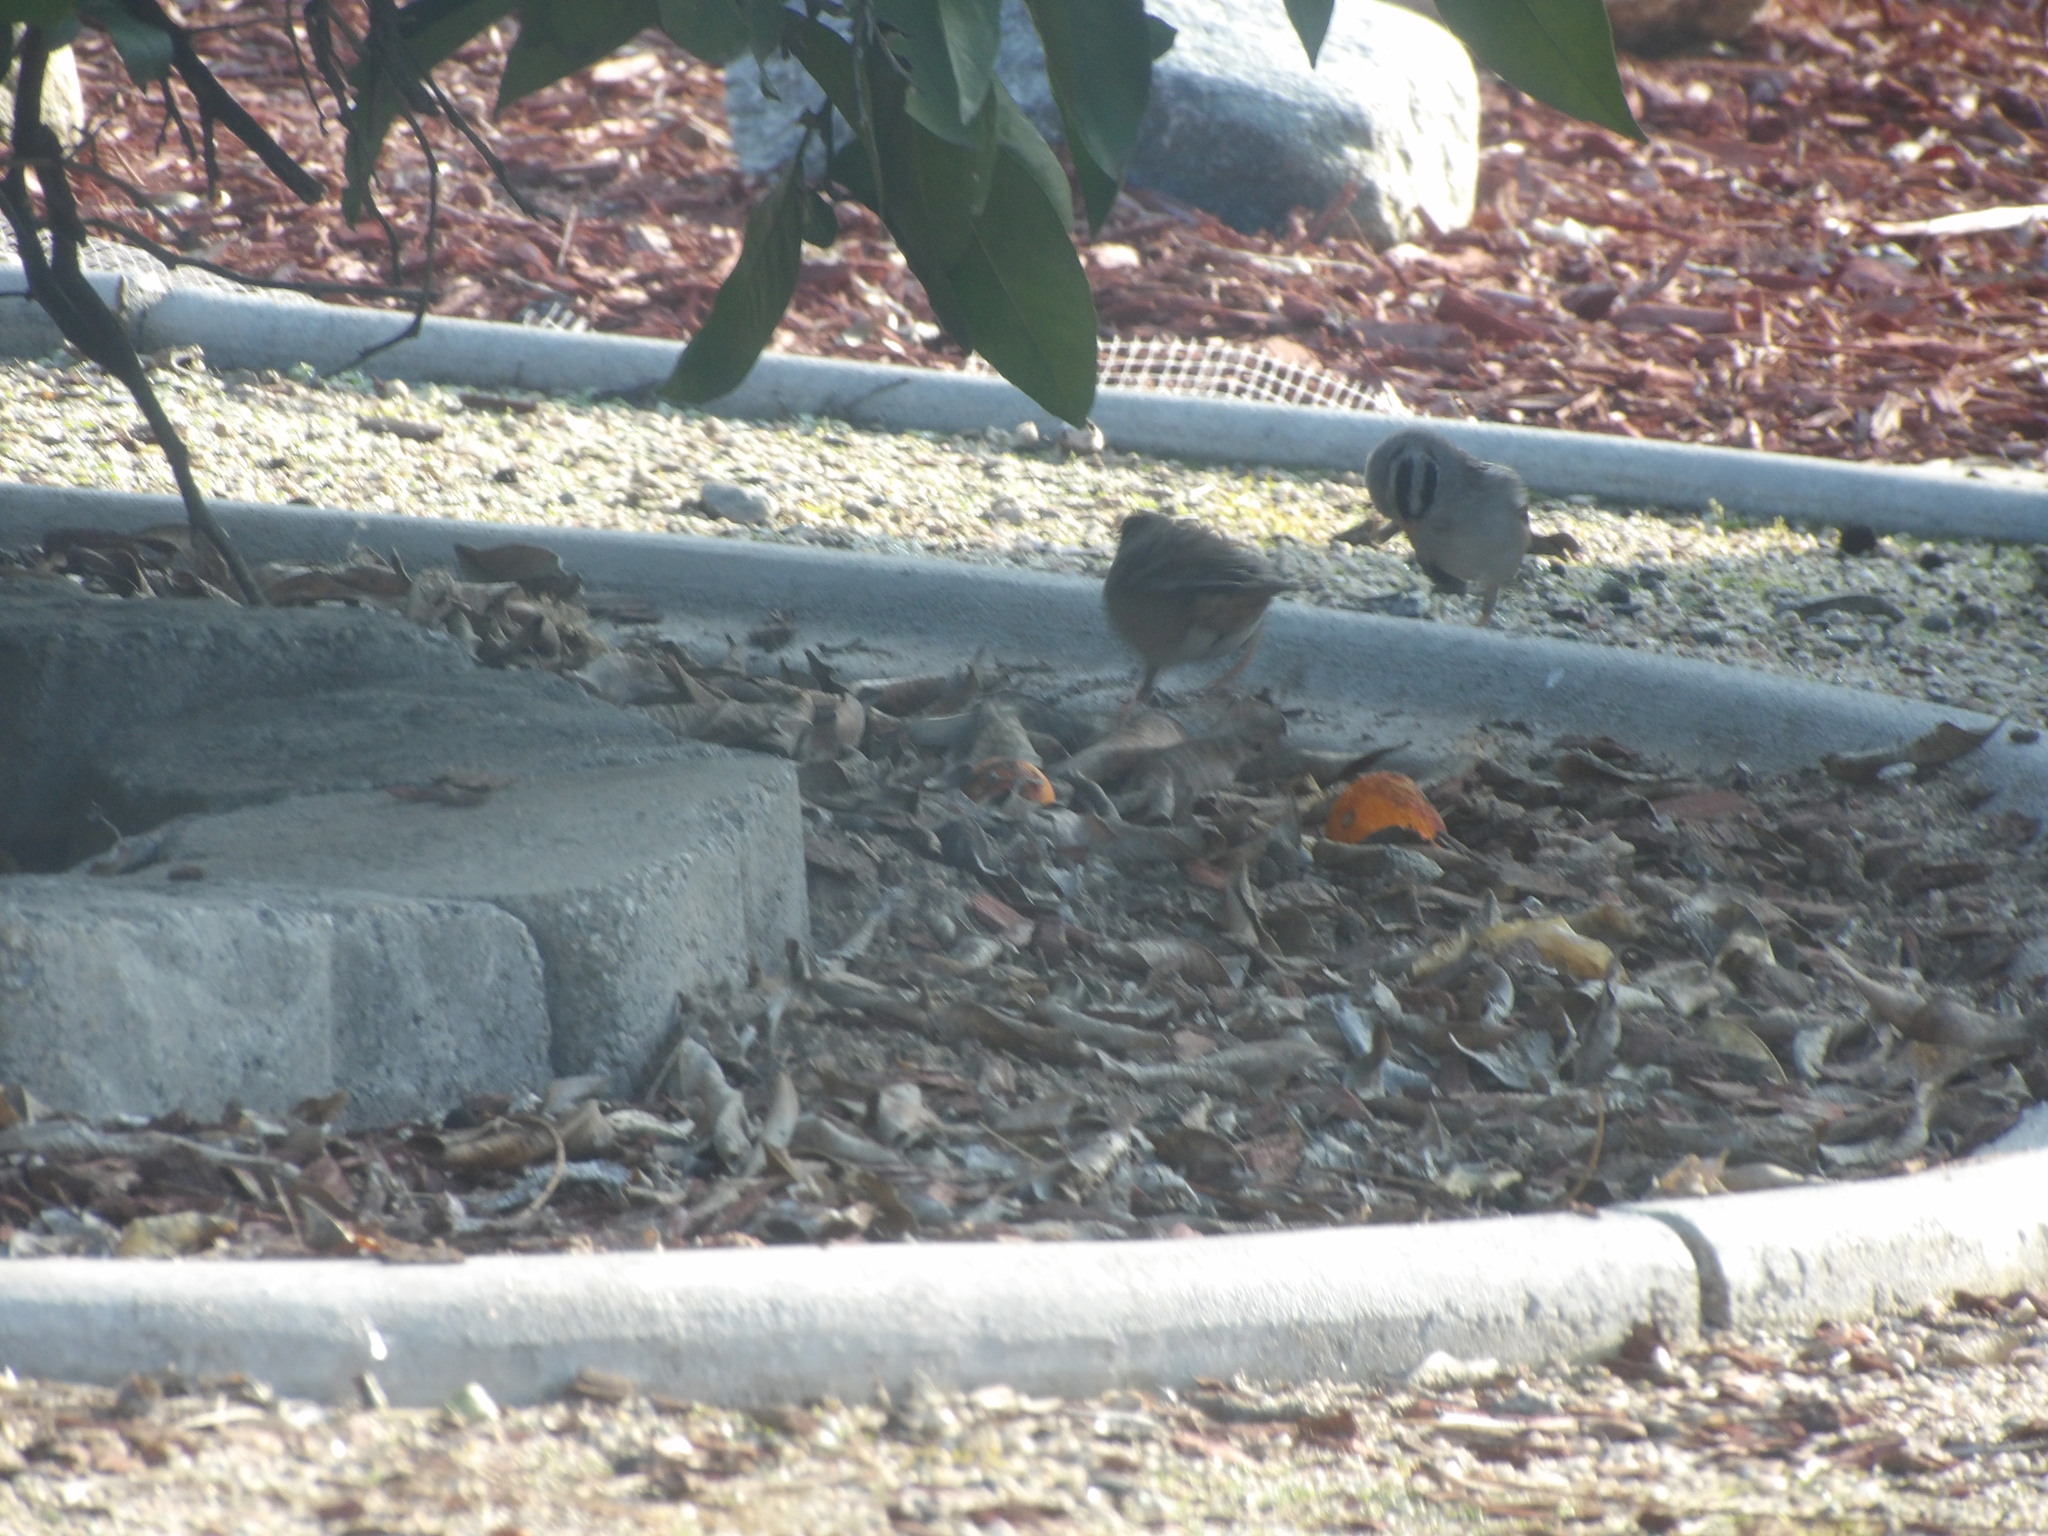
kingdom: Animalia
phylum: Chordata
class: Aves
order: Passeriformes
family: Passerellidae
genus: Zonotrichia
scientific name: Zonotrichia leucophrys
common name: White-crowned sparrow
